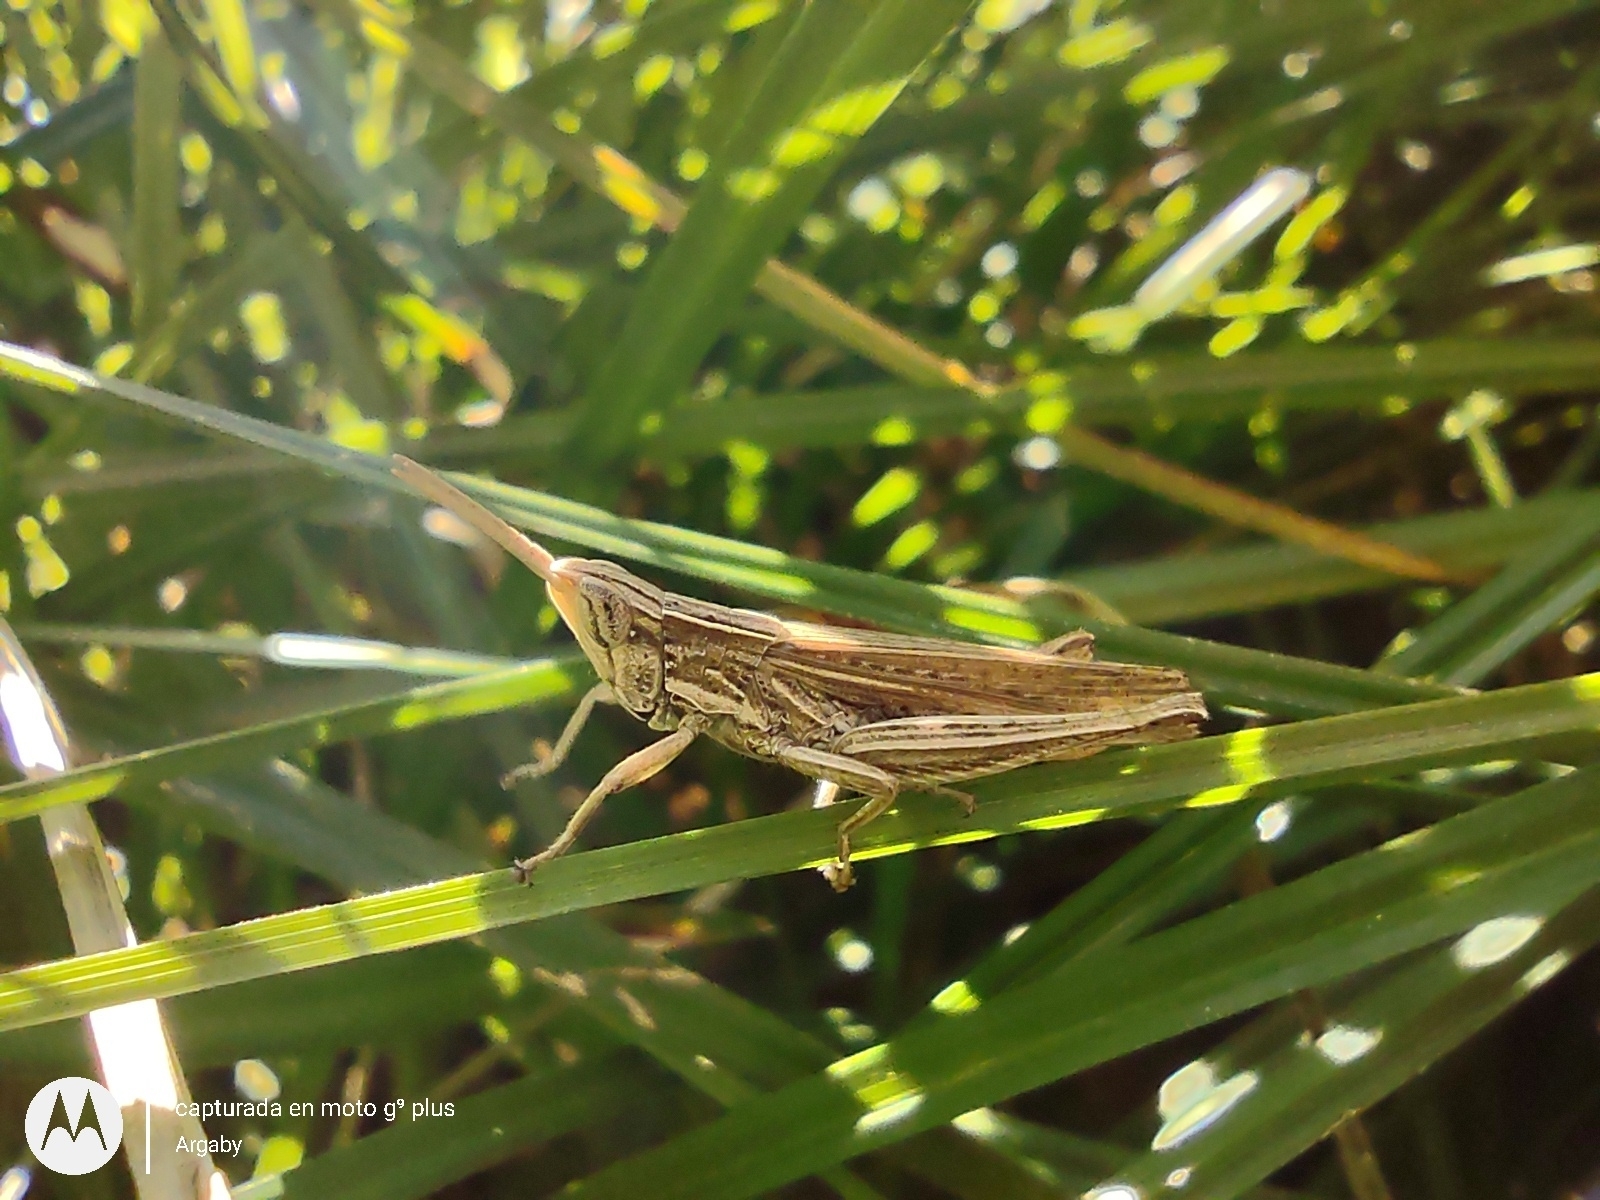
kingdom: Animalia
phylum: Arthropoda
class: Insecta
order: Orthoptera
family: Acrididae
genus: Laplatacris
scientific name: Laplatacris dispar
